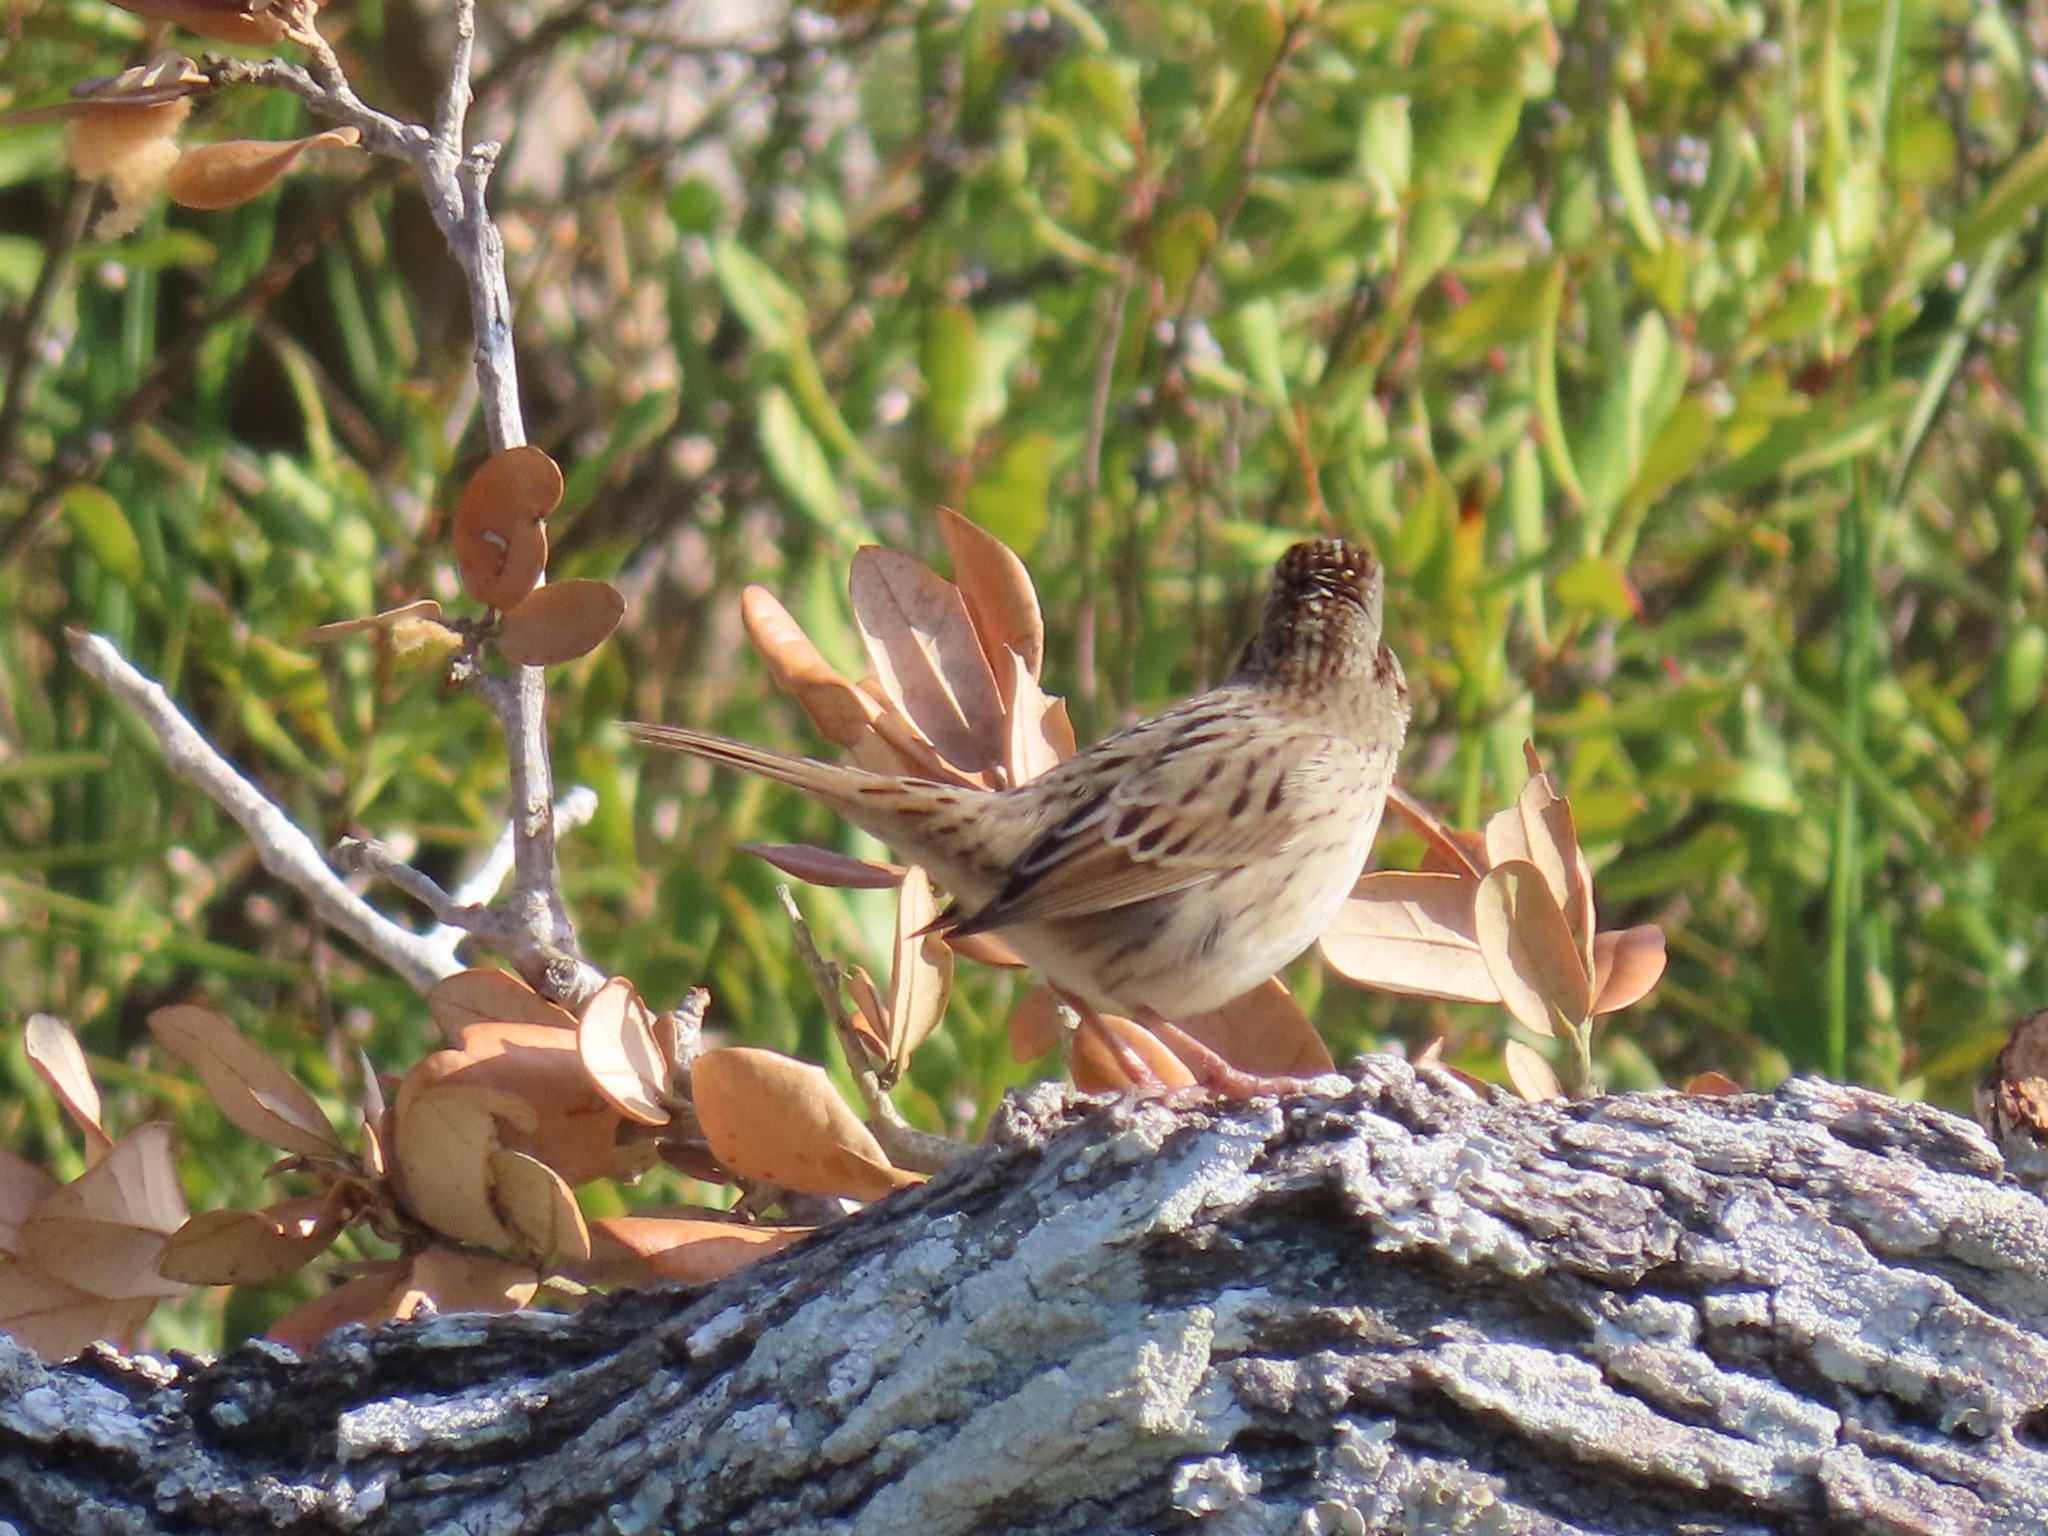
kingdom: Animalia
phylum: Chordata
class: Aves
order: Passeriformes
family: Passerellidae
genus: Melospiza
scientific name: Melospiza lincolnii
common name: Lincoln's sparrow
